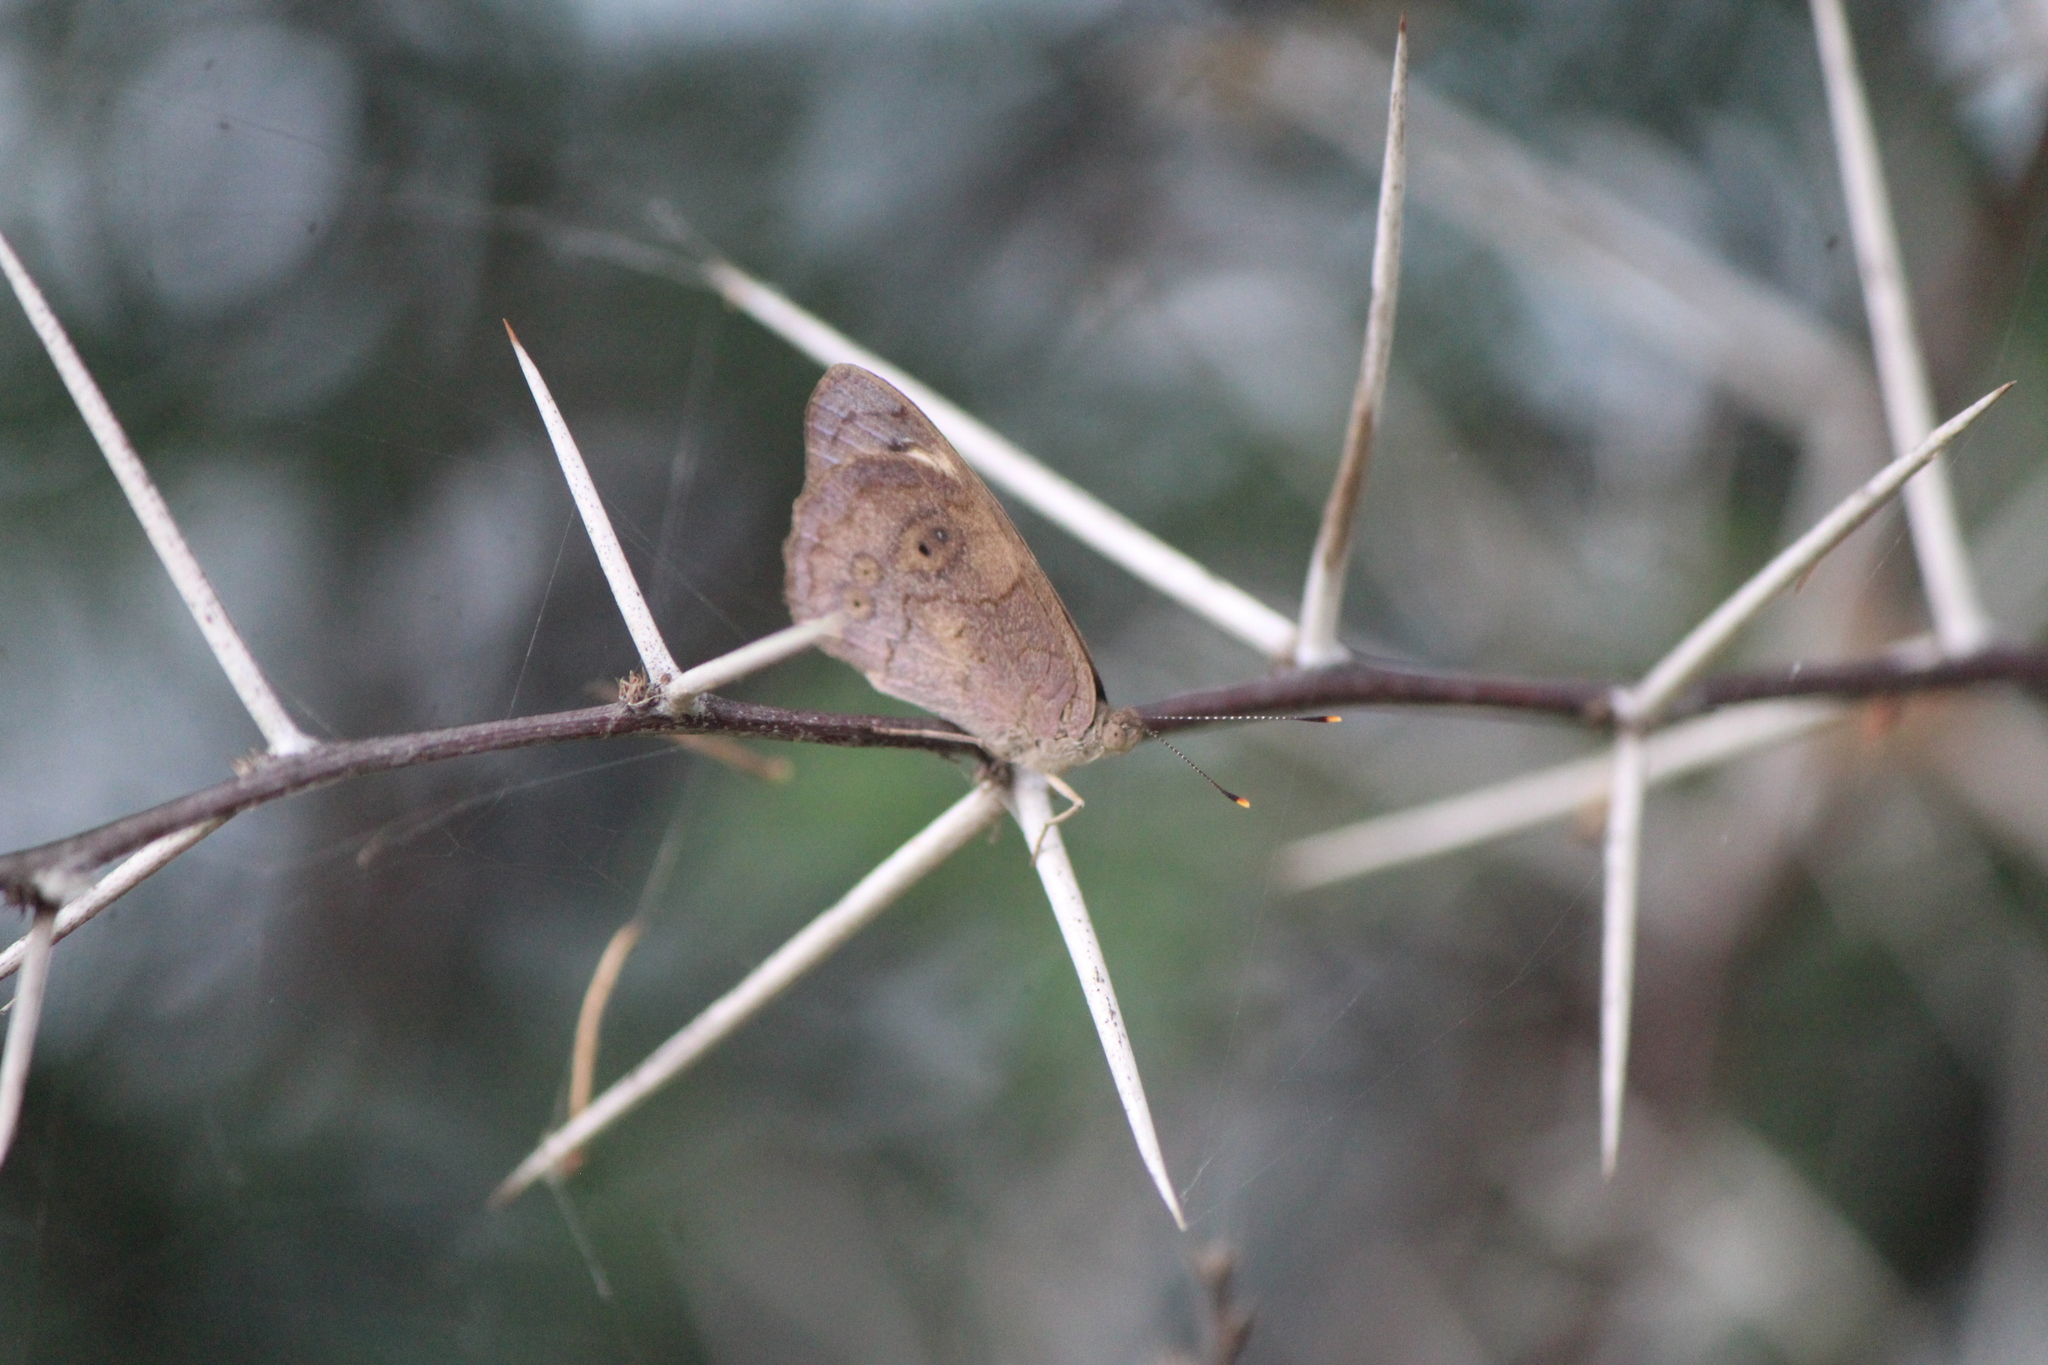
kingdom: Animalia
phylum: Arthropoda
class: Insecta
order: Lepidoptera
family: Nymphalidae
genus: Eunica
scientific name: Eunica monima
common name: Dingy purplewing
